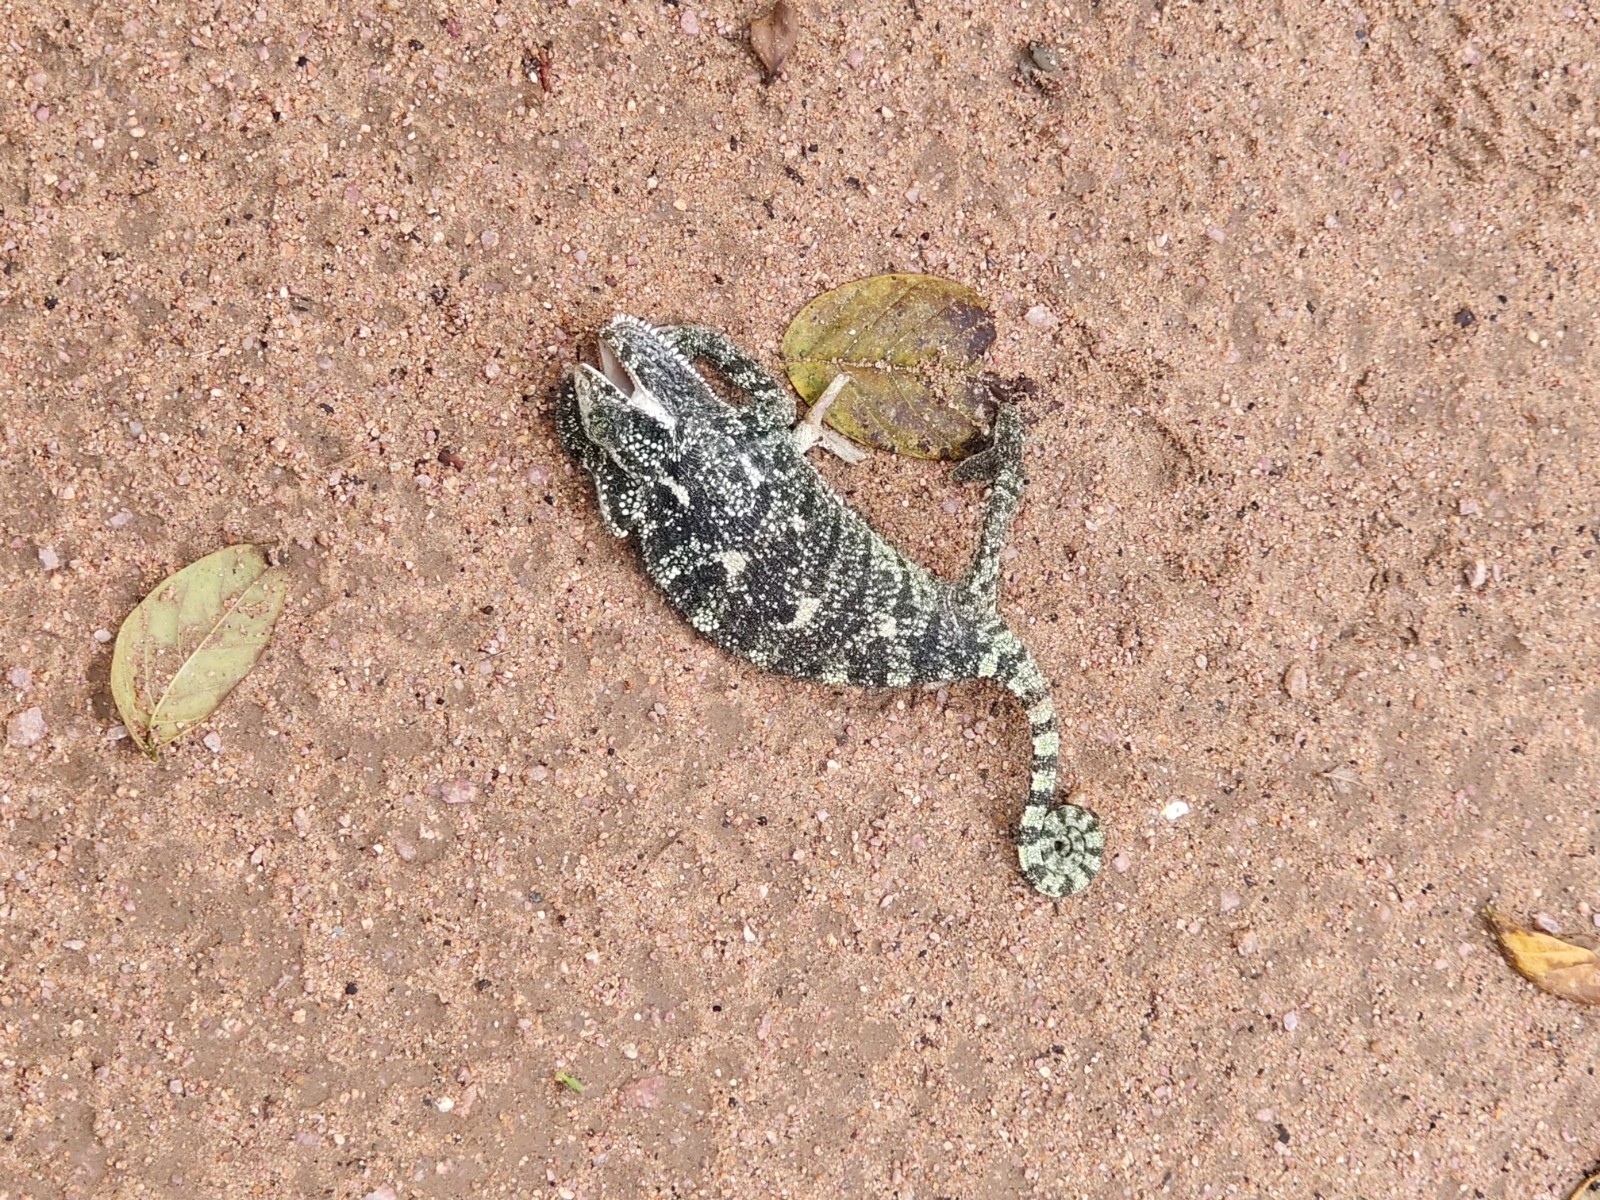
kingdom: Animalia
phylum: Chordata
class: Squamata
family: Chamaeleonidae
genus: Chamaeleo
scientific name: Chamaeleo zeylanicus
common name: Indian chameleon
